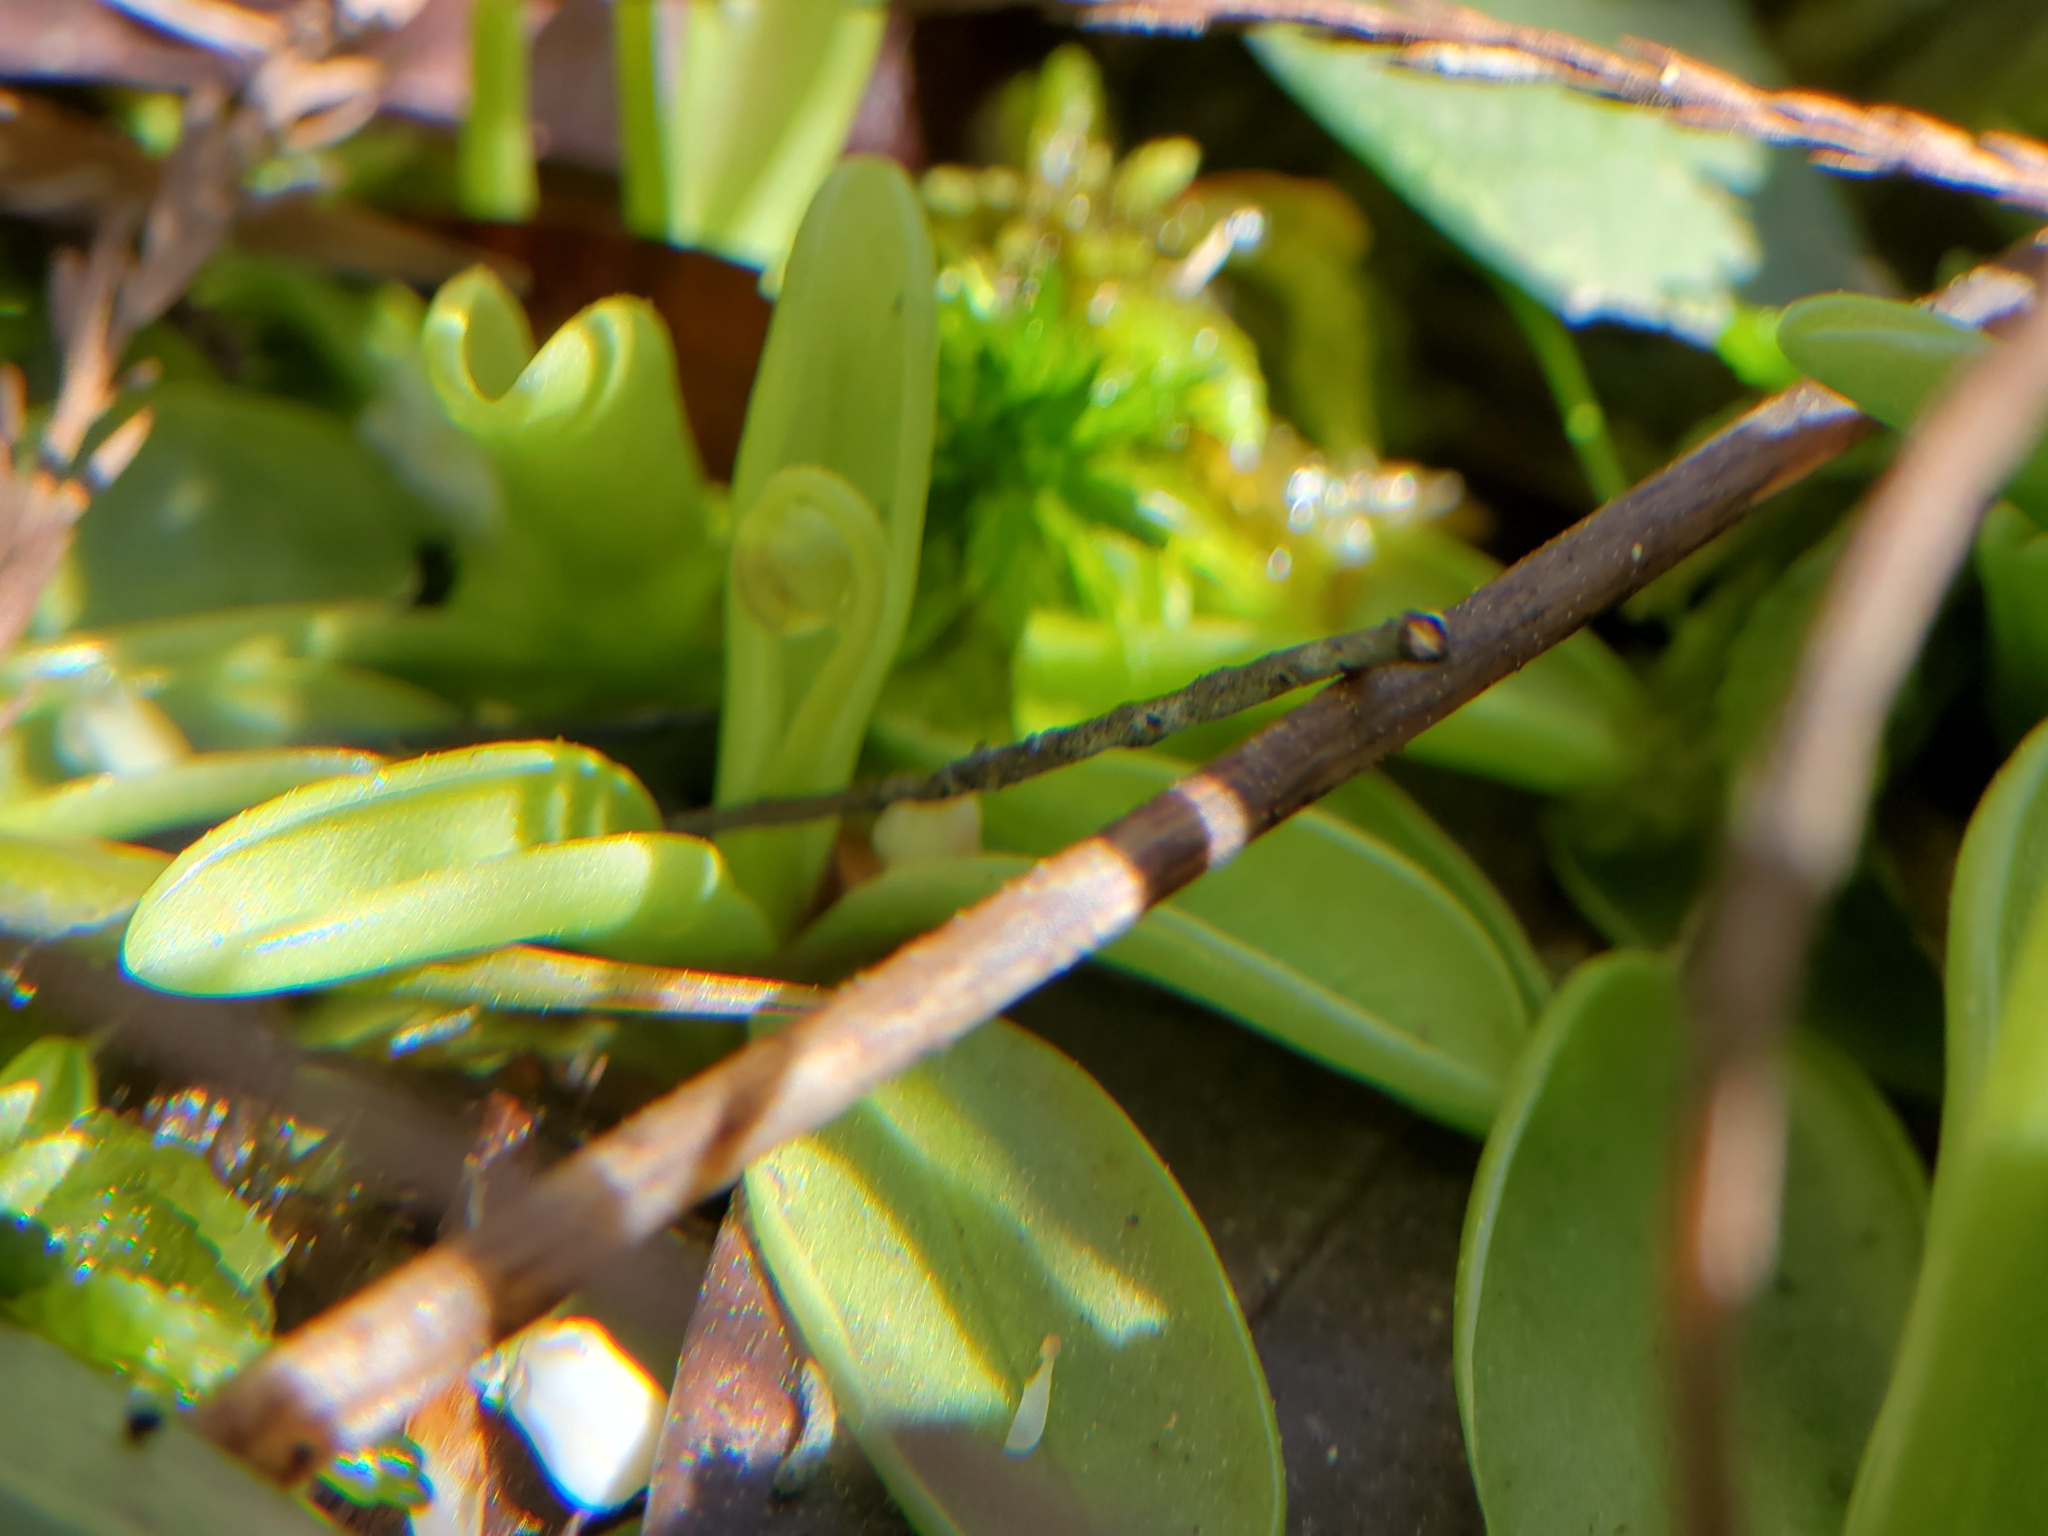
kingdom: Plantae
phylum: Tracheophyta
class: Magnoliopsida
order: Lamiales
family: Lentibulariaceae
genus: Pinguicula
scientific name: Pinguicula primuliflora
